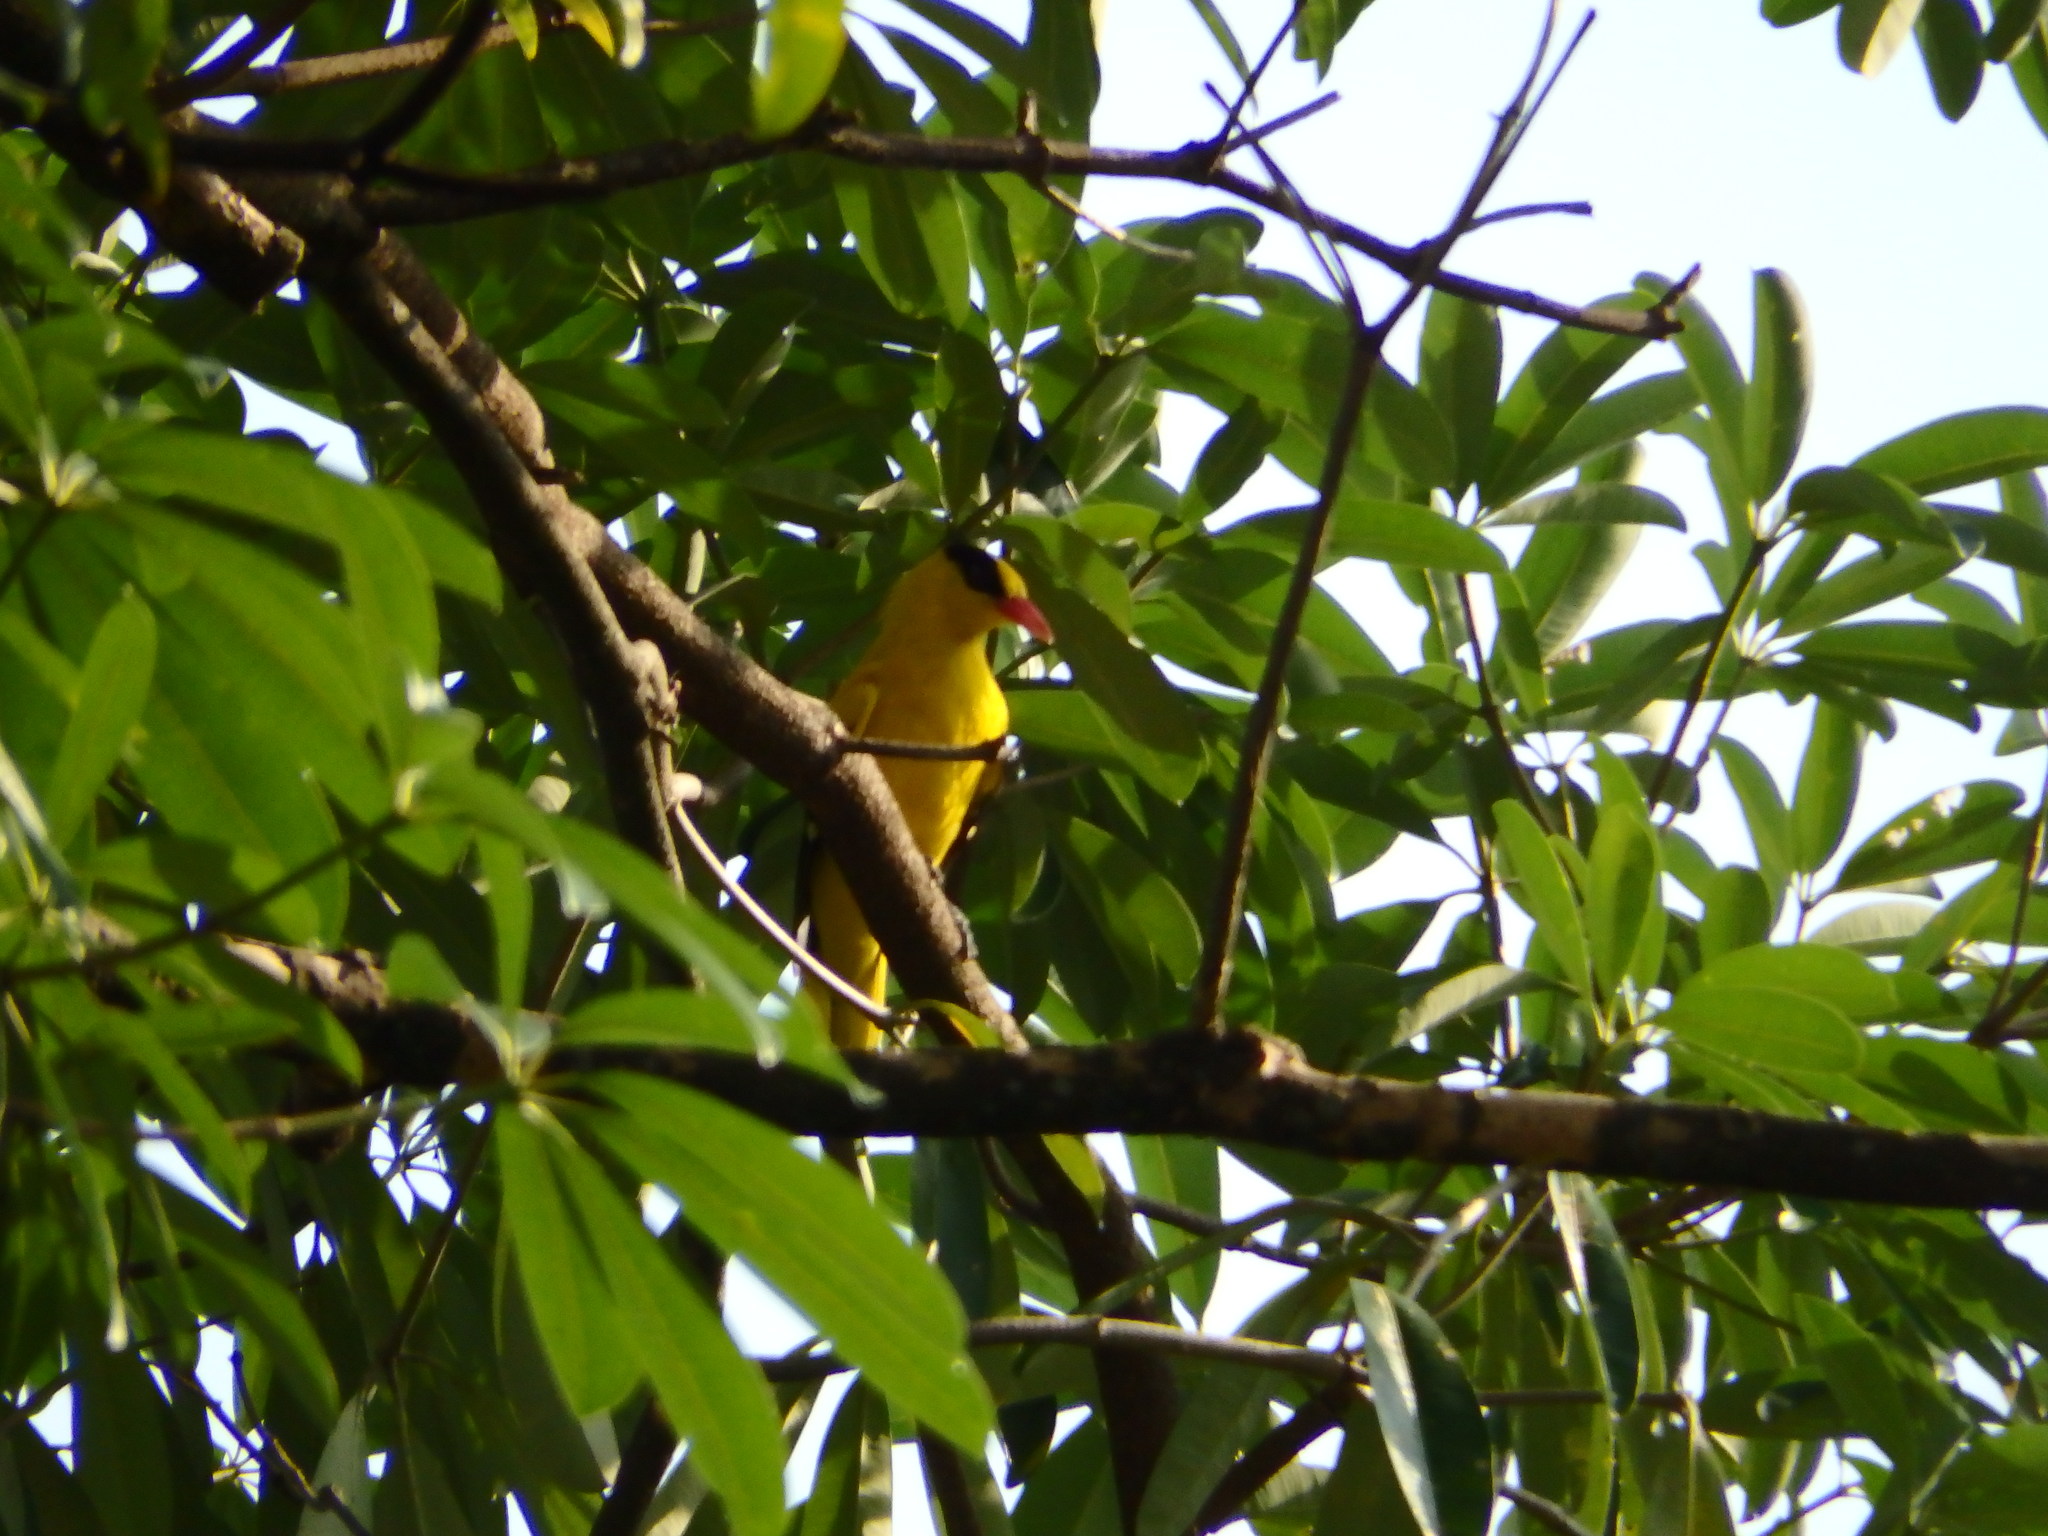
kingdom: Animalia
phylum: Chordata
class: Aves
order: Passeriformes
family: Oriolidae
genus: Oriolus
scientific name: Oriolus chinensis
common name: Black-naped oriole
